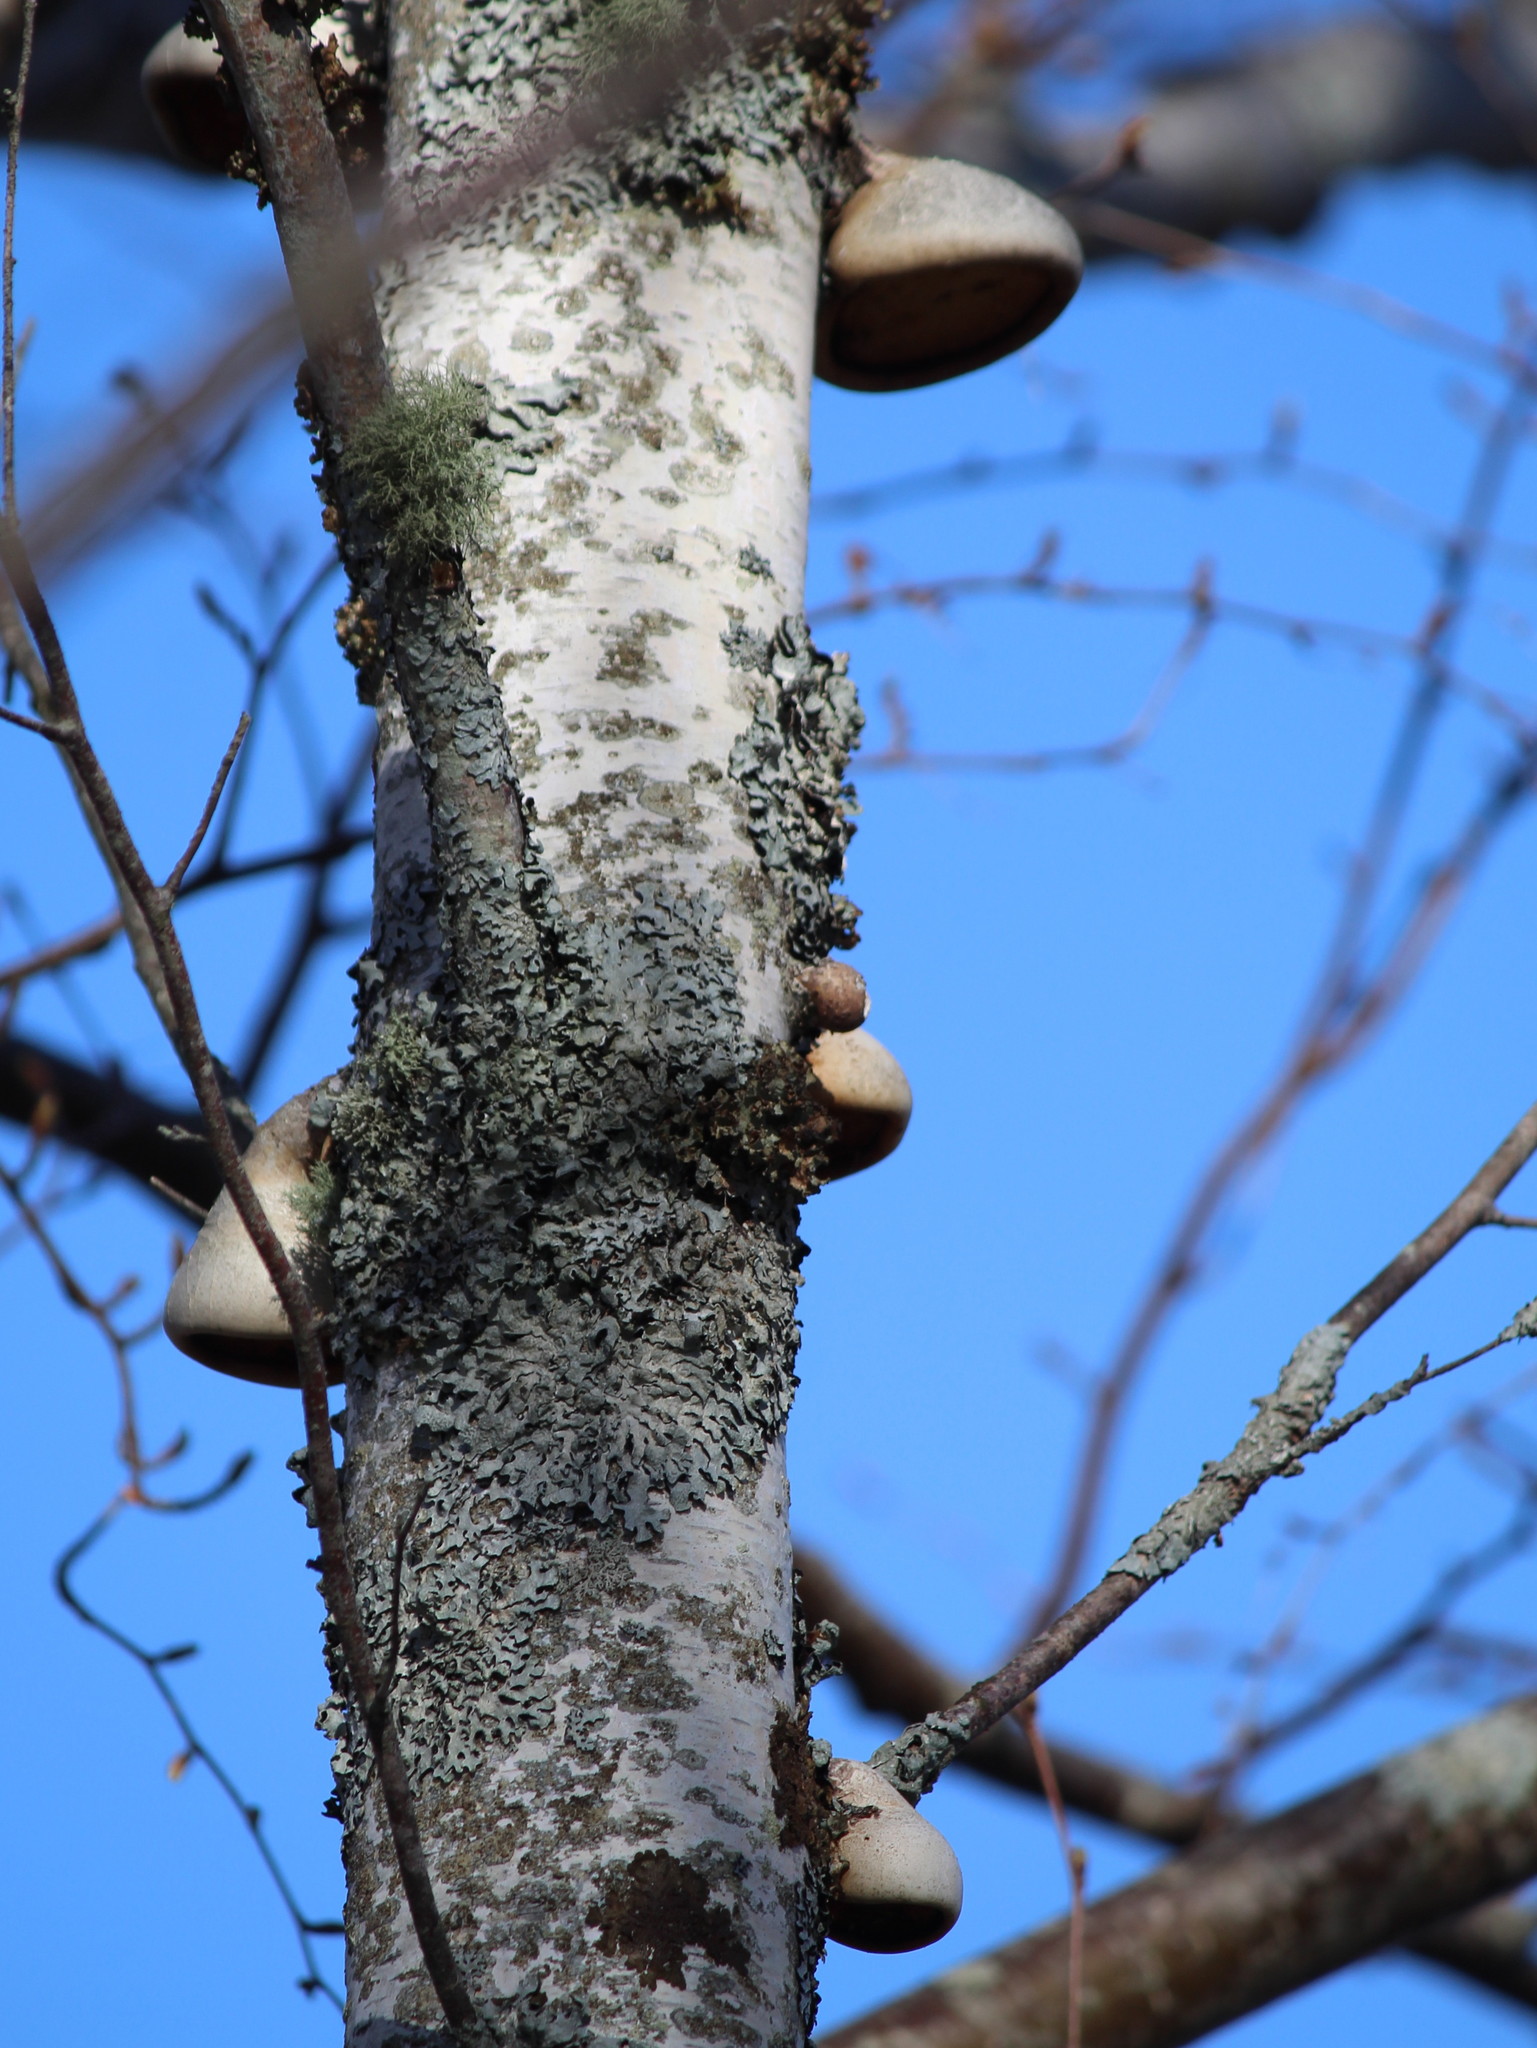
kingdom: Fungi
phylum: Basidiomycota
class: Agaricomycetes
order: Polyporales
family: Fomitopsidaceae
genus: Fomitopsis
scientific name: Fomitopsis betulina
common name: Birch polypore
